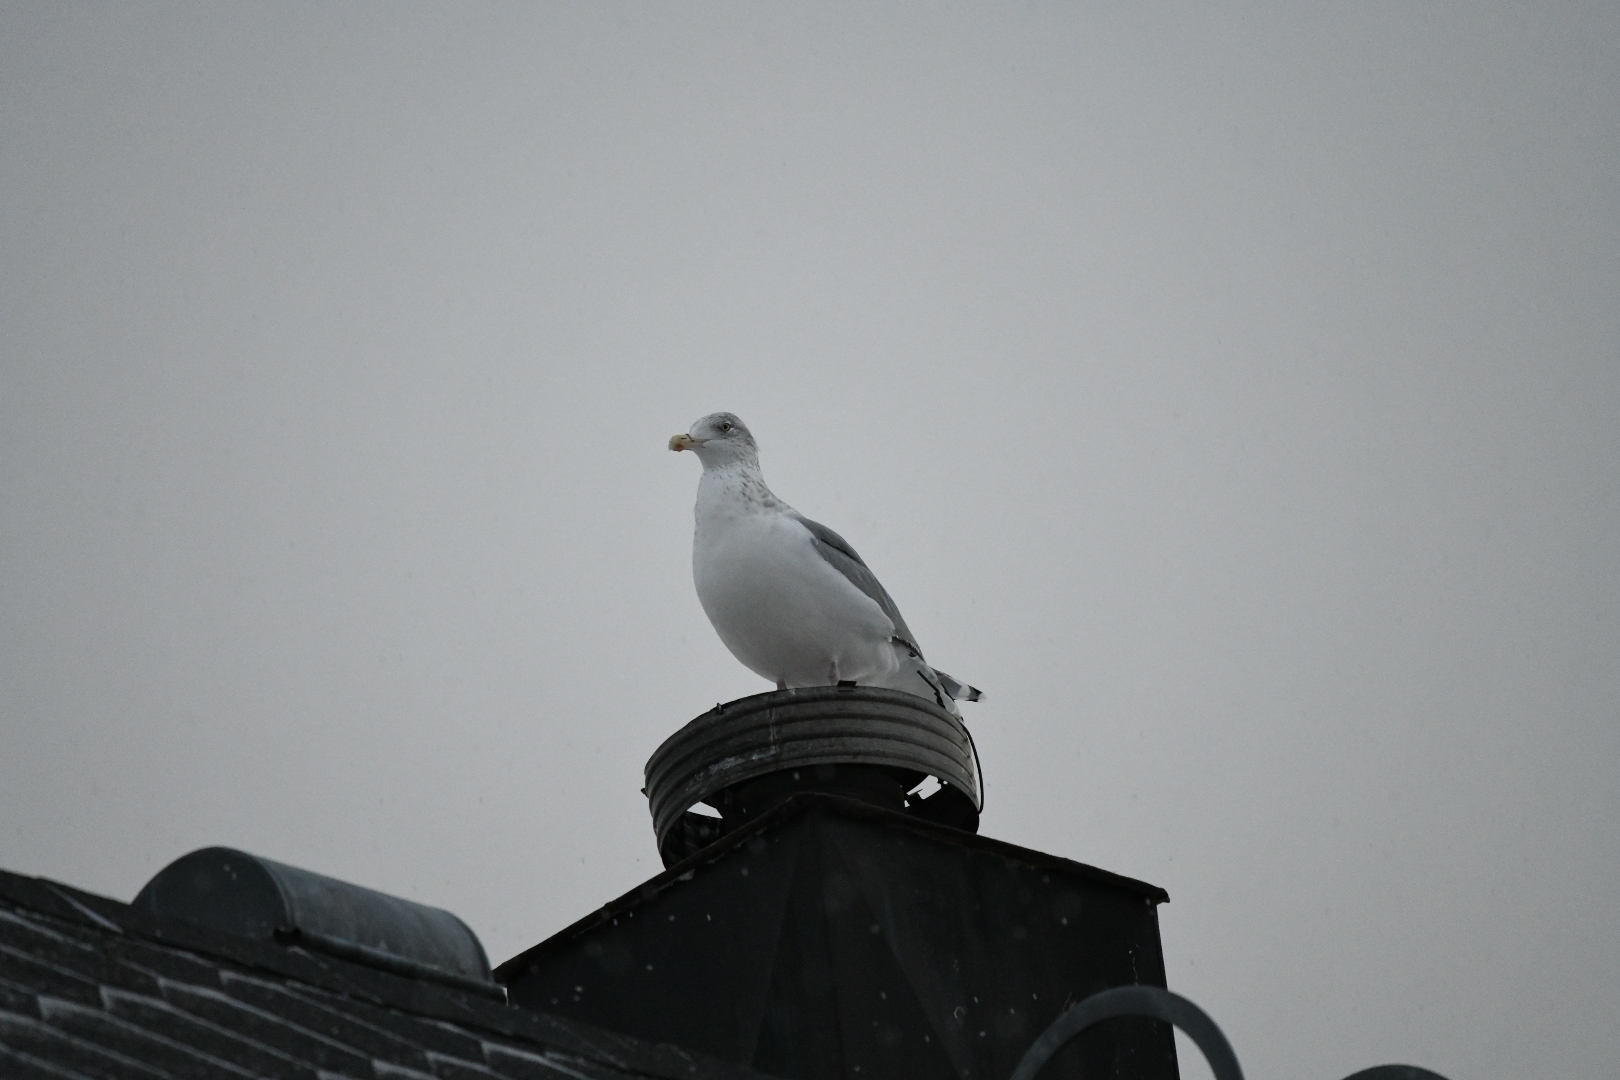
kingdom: Animalia
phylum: Chordata
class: Aves
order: Charadriiformes
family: Laridae
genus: Larus
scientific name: Larus argentatus
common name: Herring gull
